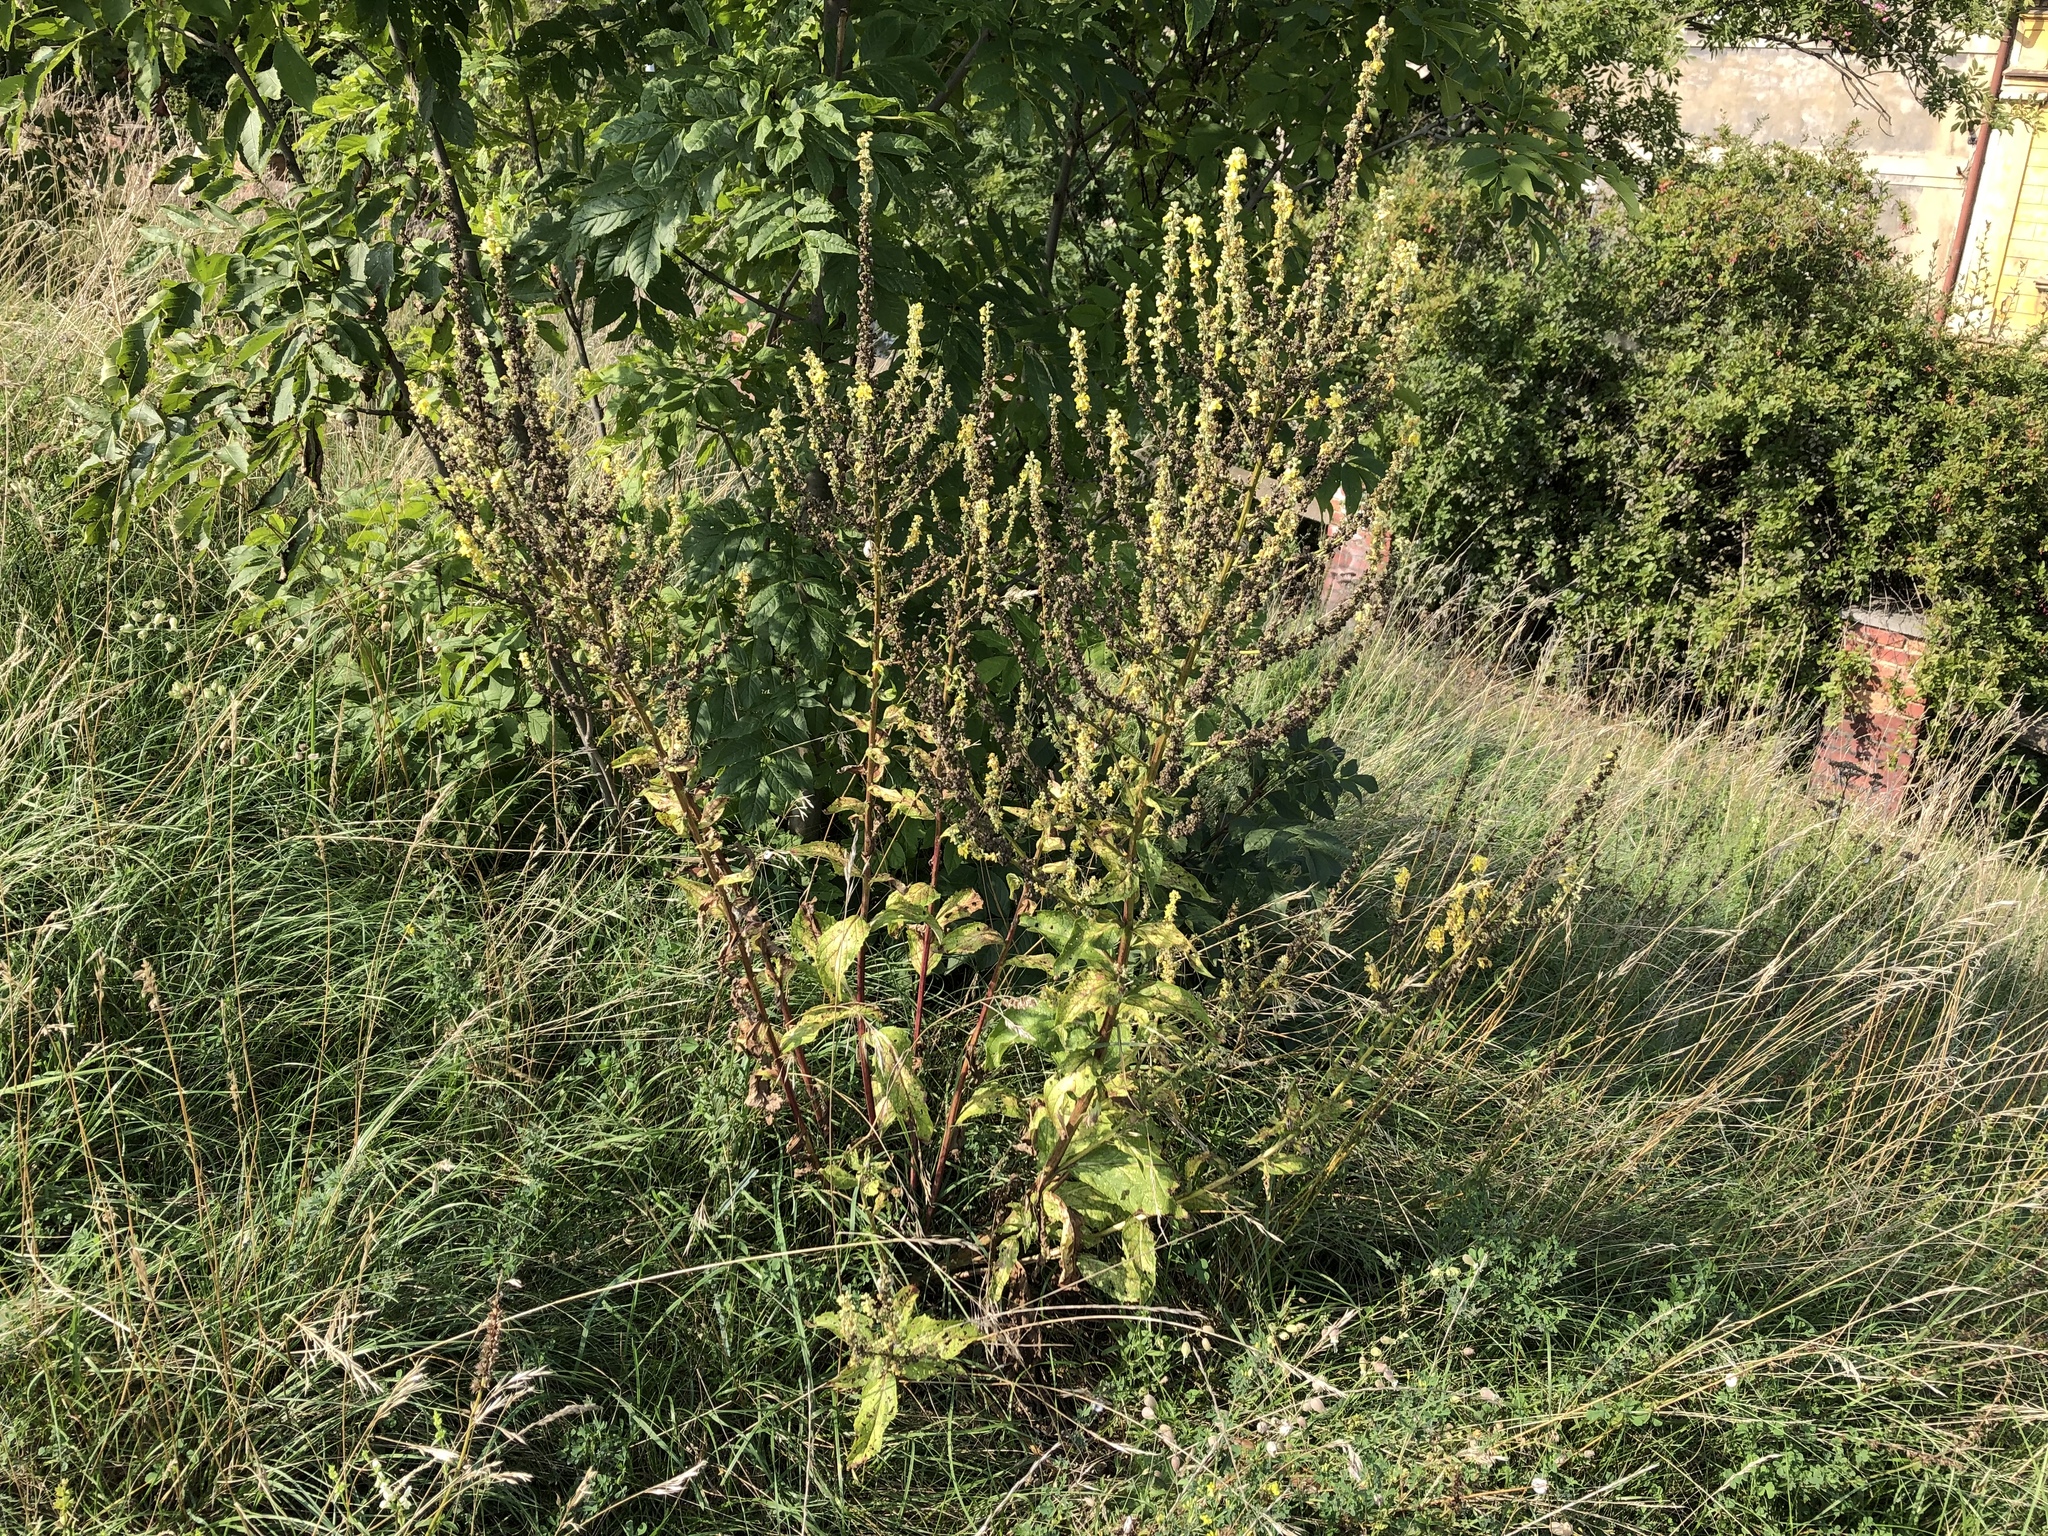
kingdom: Plantae
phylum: Tracheophyta
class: Magnoliopsida
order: Lamiales
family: Scrophulariaceae
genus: Verbascum
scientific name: Verbascum lychnitis
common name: White mullein
